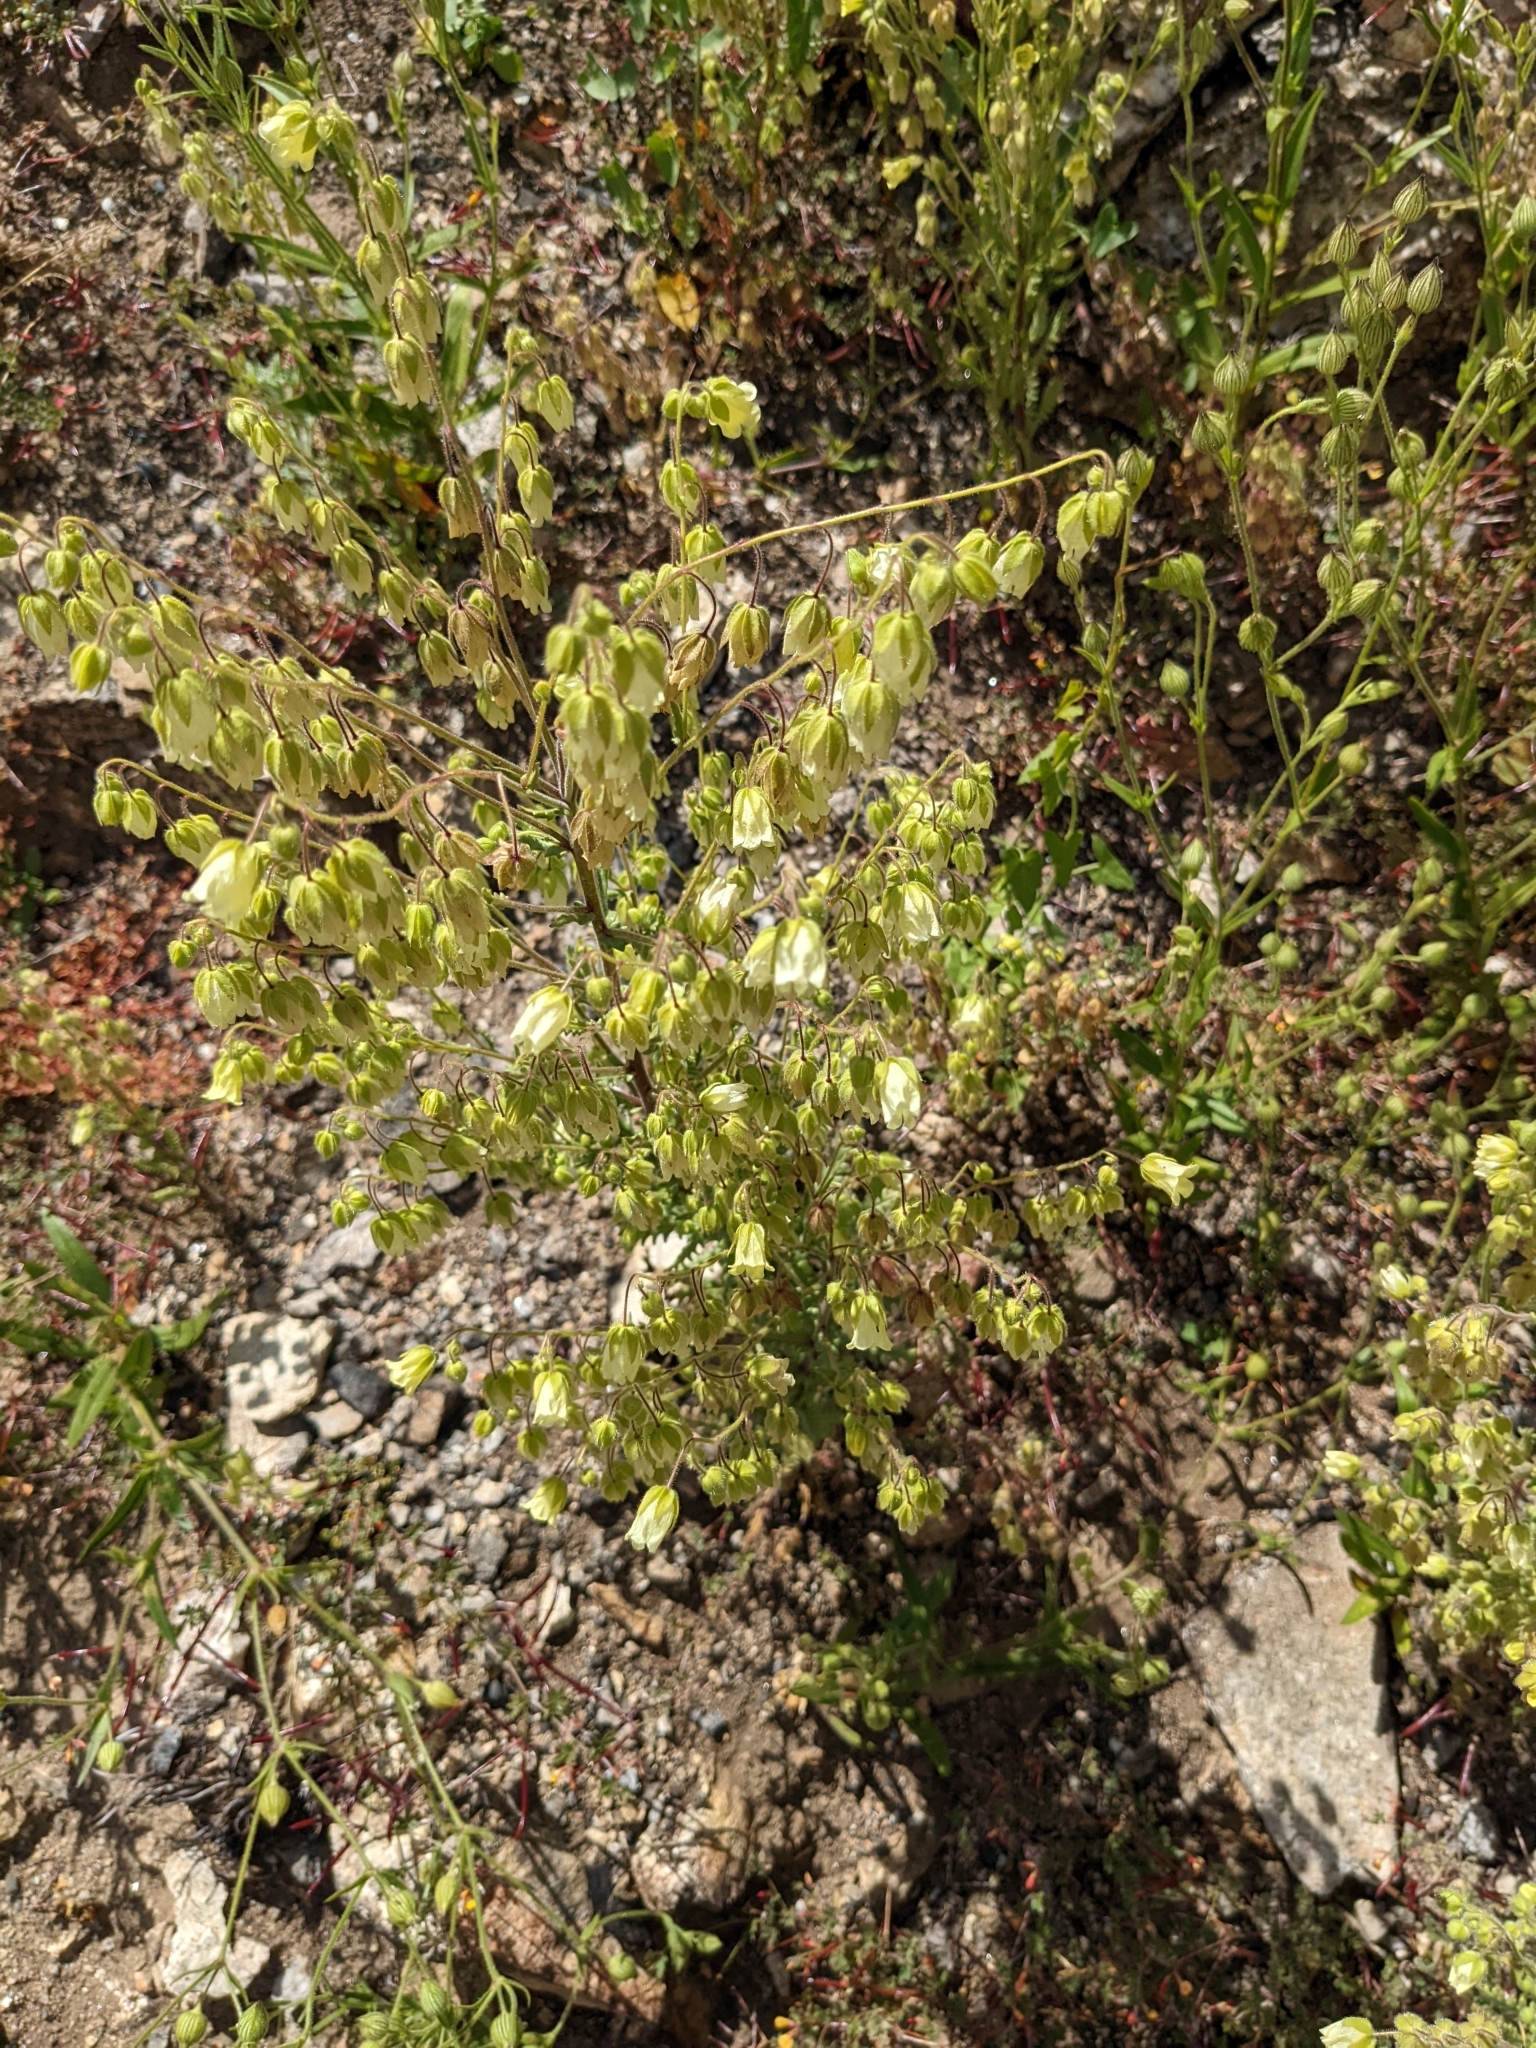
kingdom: Plantae
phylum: Tracheophyta
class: Magnoliopsida
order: Boraginales
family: Hydrophyllaceae
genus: Emmenanthe
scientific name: Emmenanthe penduliflora
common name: Whispering-bells
